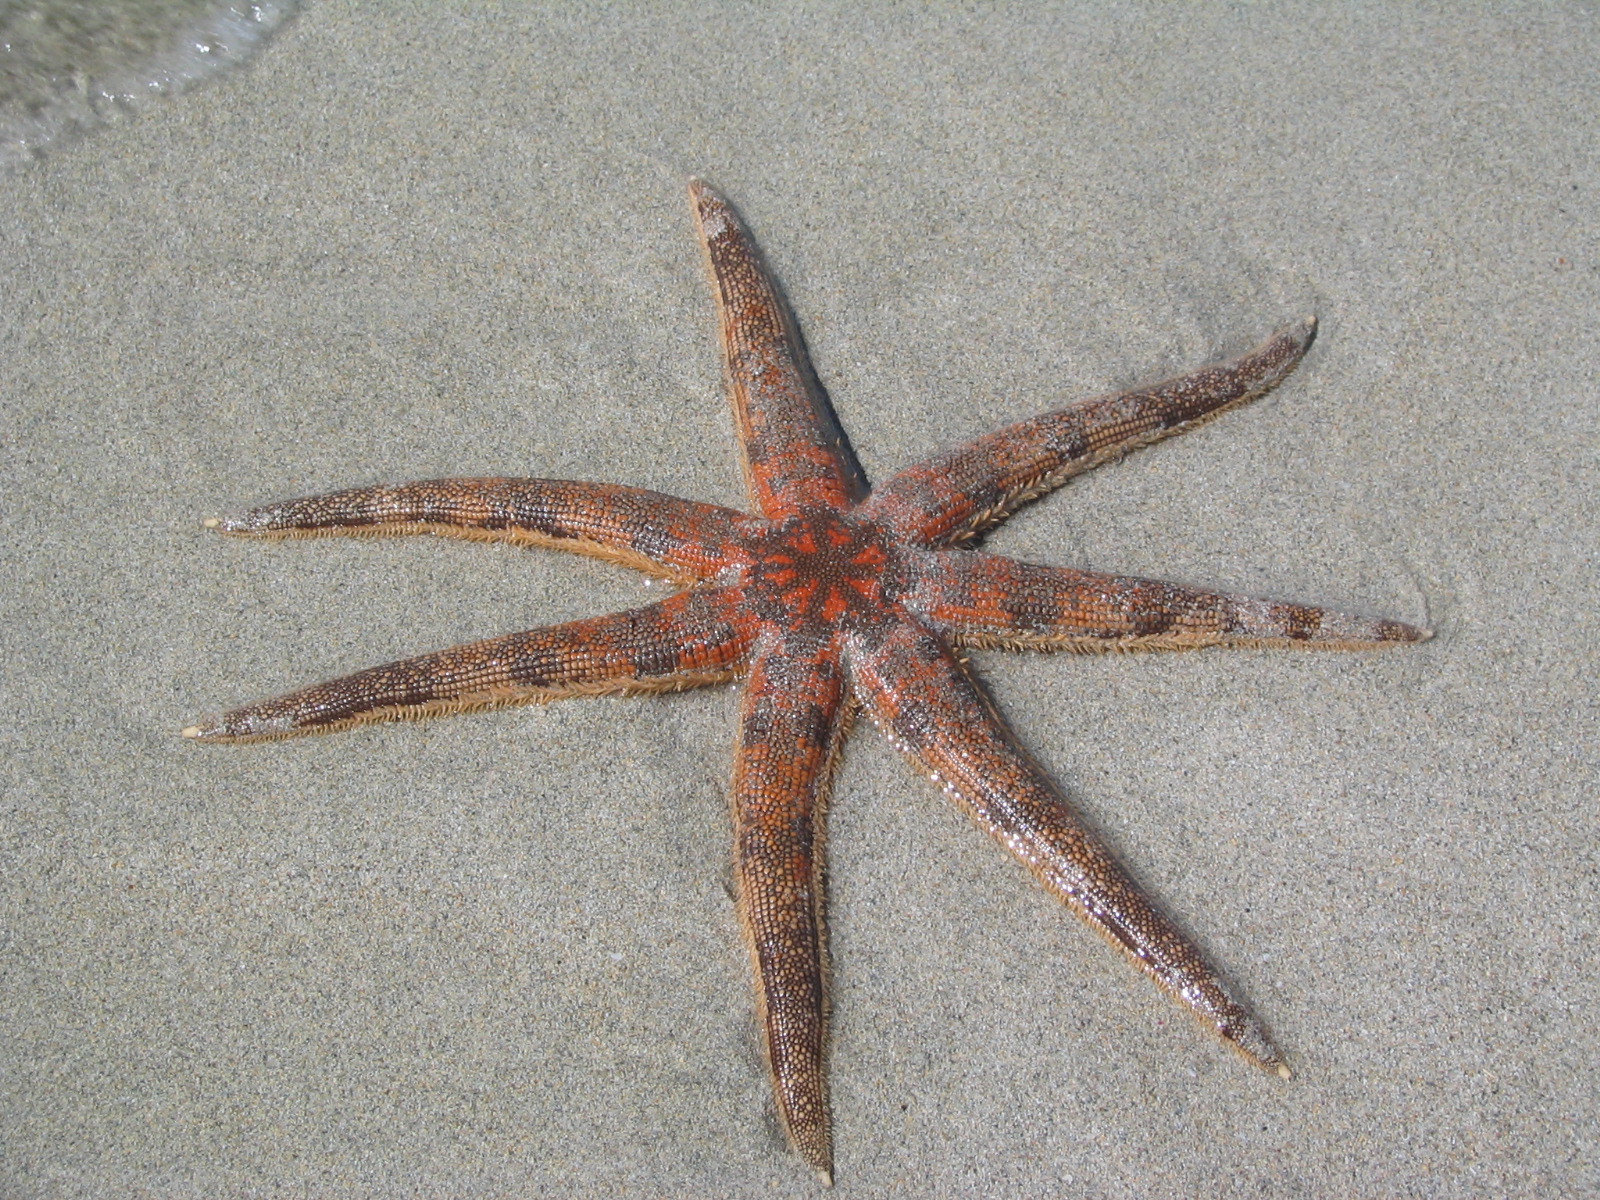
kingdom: Animalia
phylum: Echinodermata
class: Asteroidea
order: Paxillosida
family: Luidiidae
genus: Luidia
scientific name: Luidia australiae
